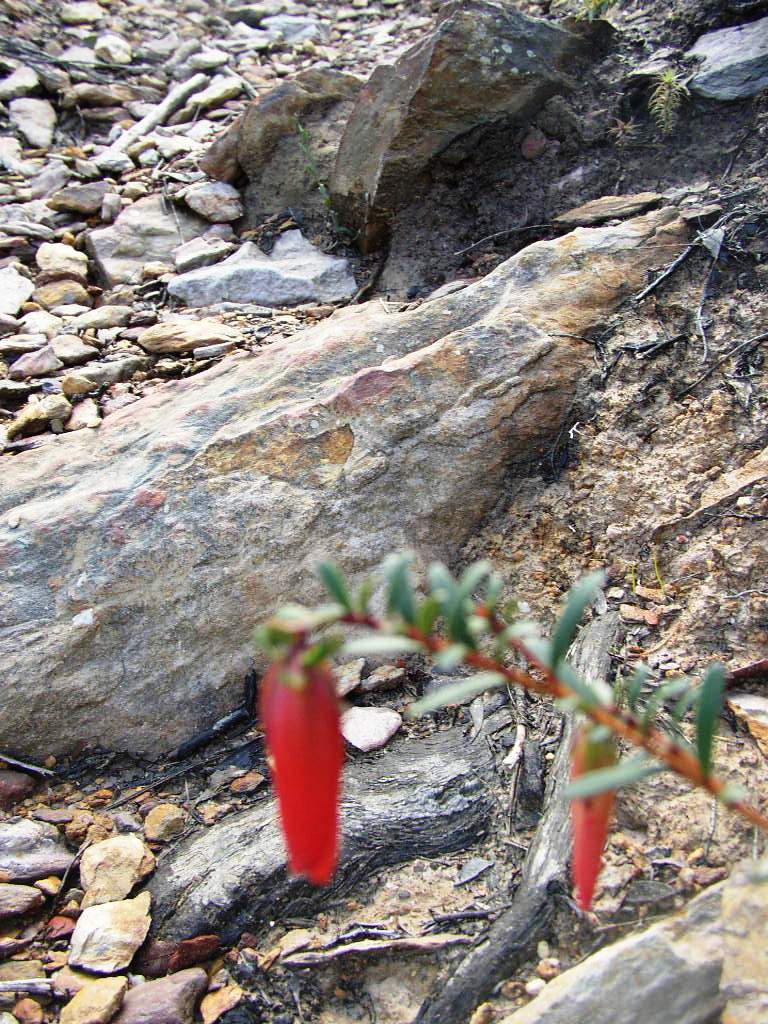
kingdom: Plantae
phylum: Tracheophyta
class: Magnoliopsida
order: Myrtales
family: Myrtaceae
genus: Darwinia
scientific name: Darwinia hypericifolia
